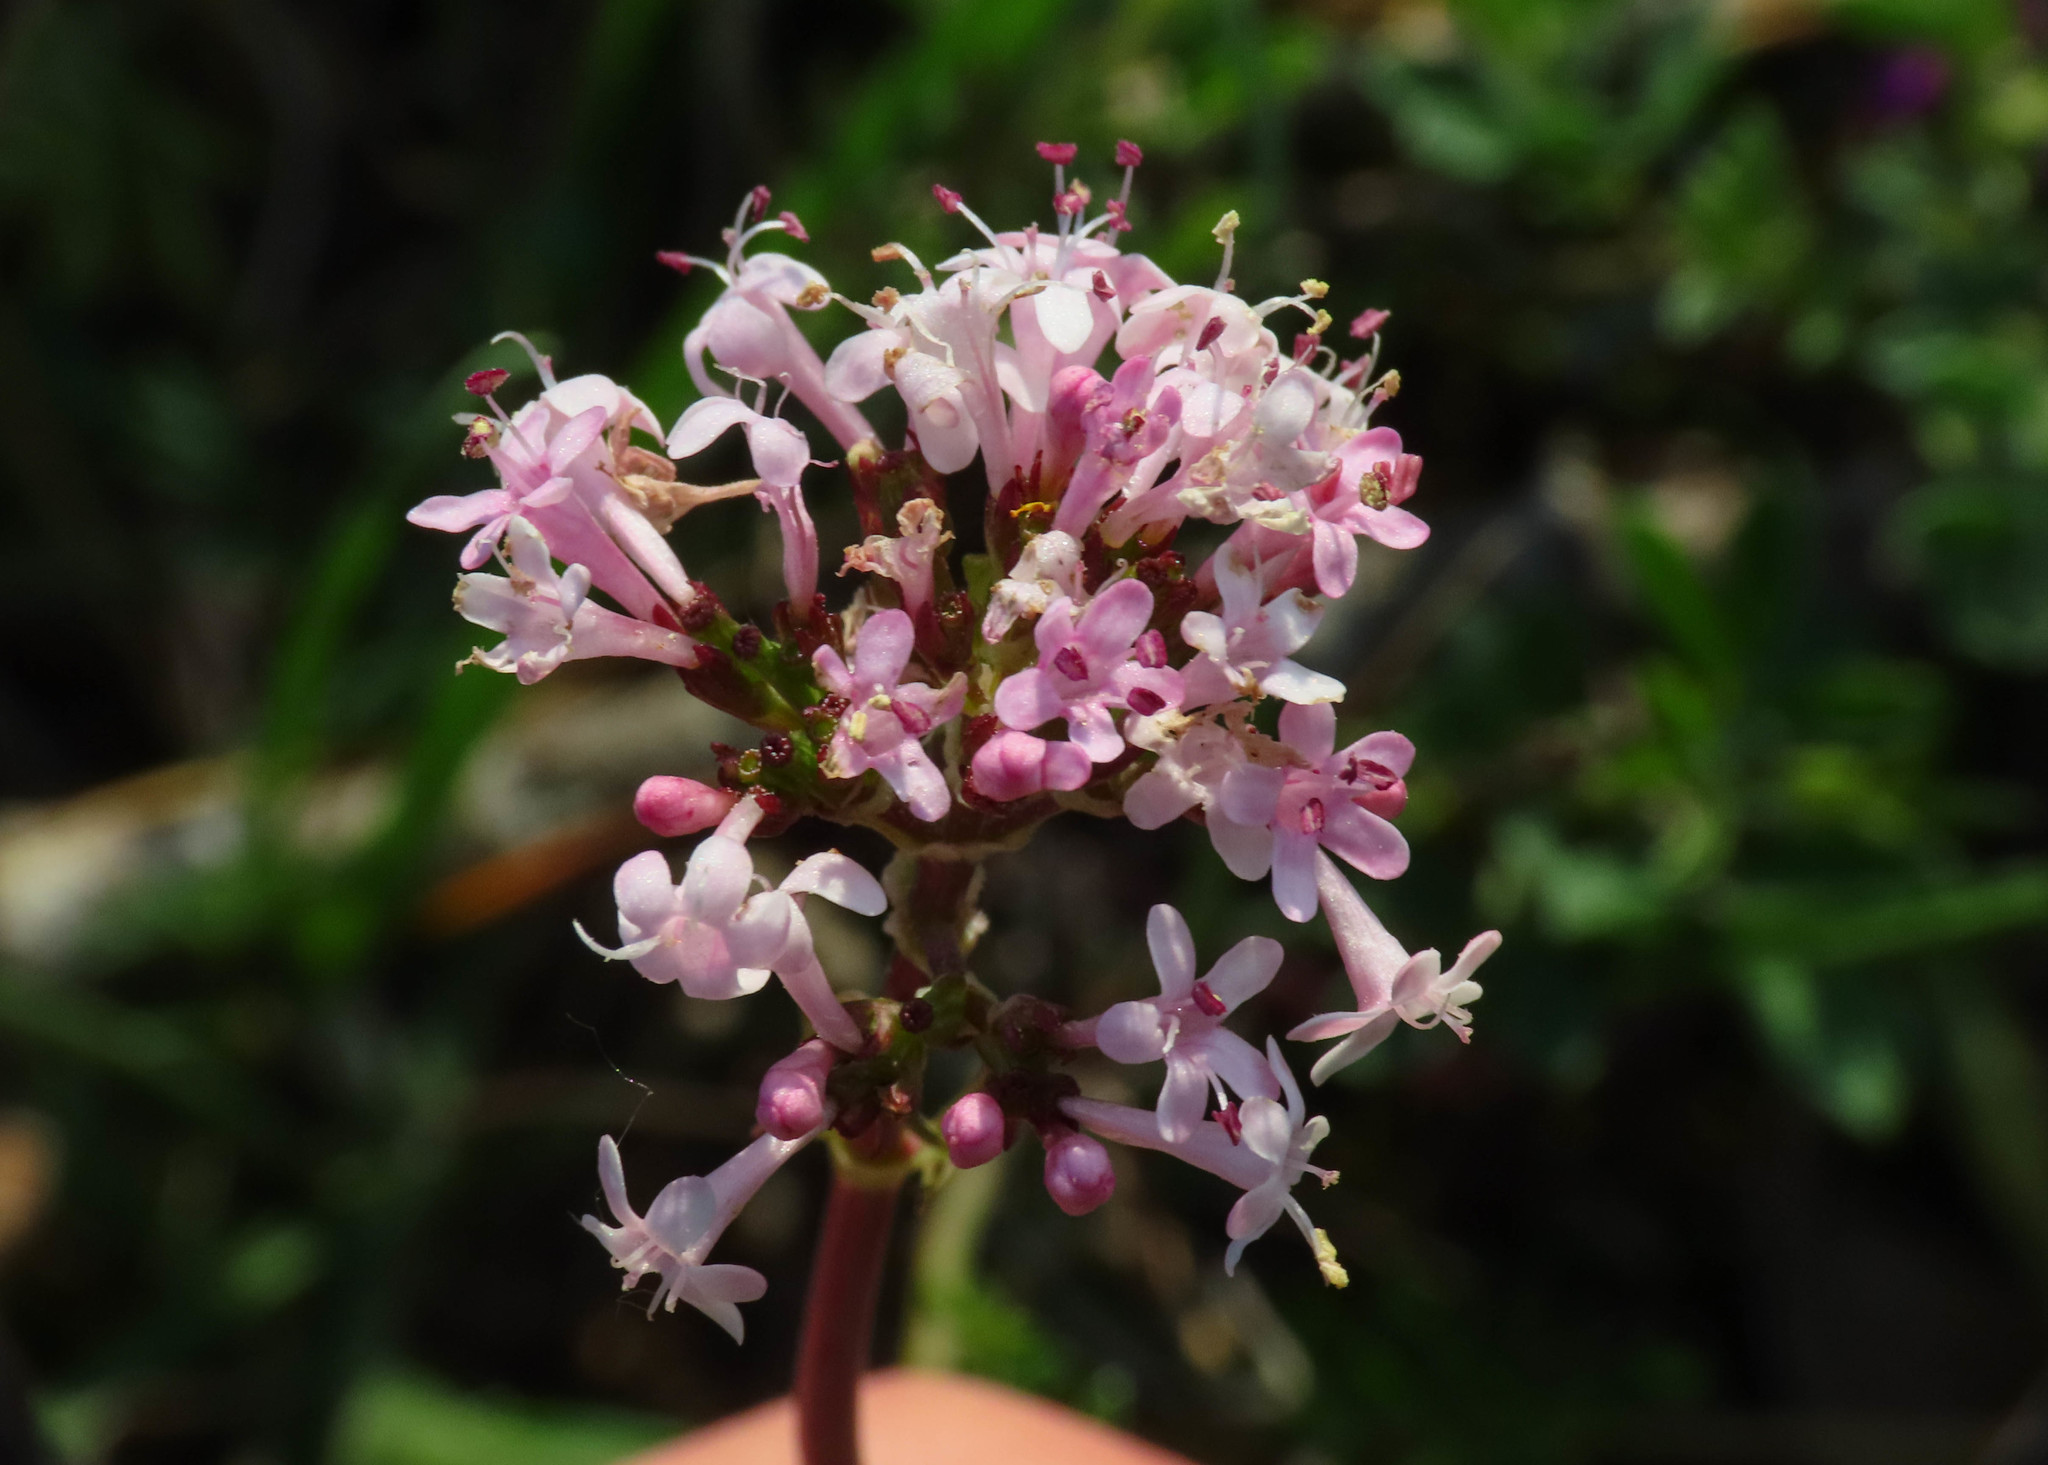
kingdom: Plantae
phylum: Tracheophyta
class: Magnoliopsida
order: Dipsacales
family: Caprifoliaceae
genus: Valeriana
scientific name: Valeriana tuberosa
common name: Tuberous valerian
